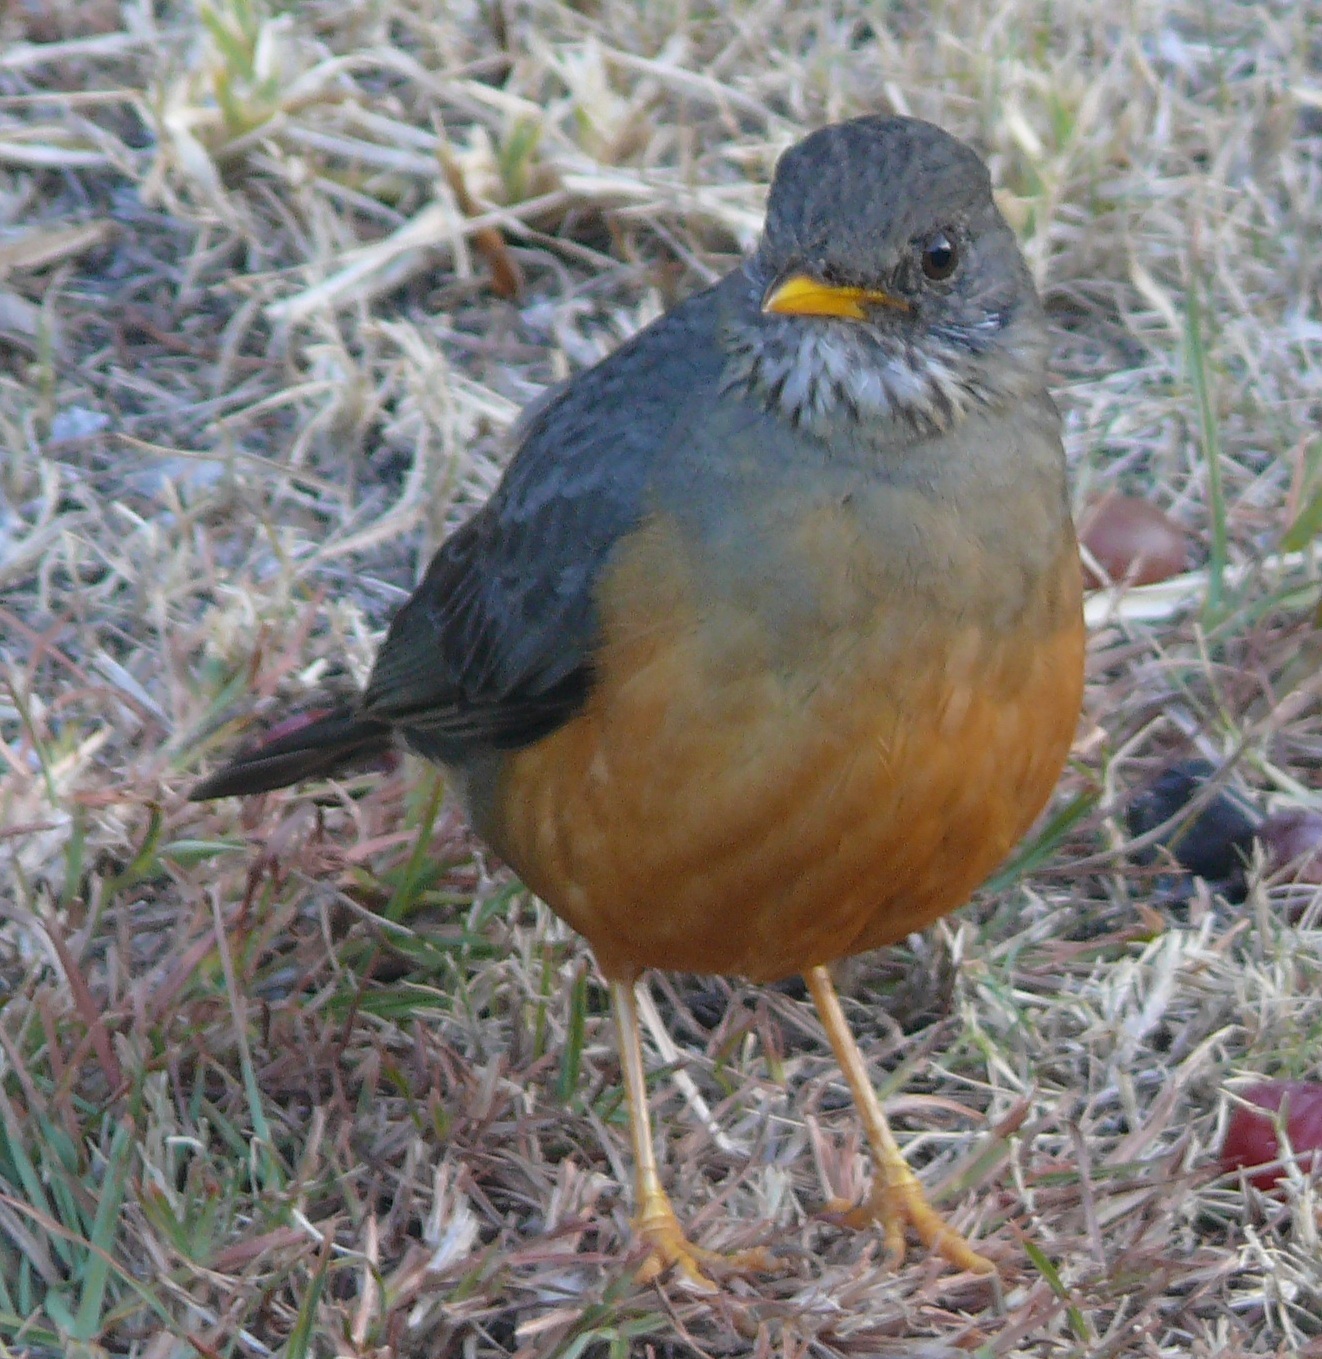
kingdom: Animalia
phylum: Chordata
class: Aves
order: Passeriformes
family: Turdidae
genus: Turdus
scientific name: Turdus olivaceus
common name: Olive thrush
